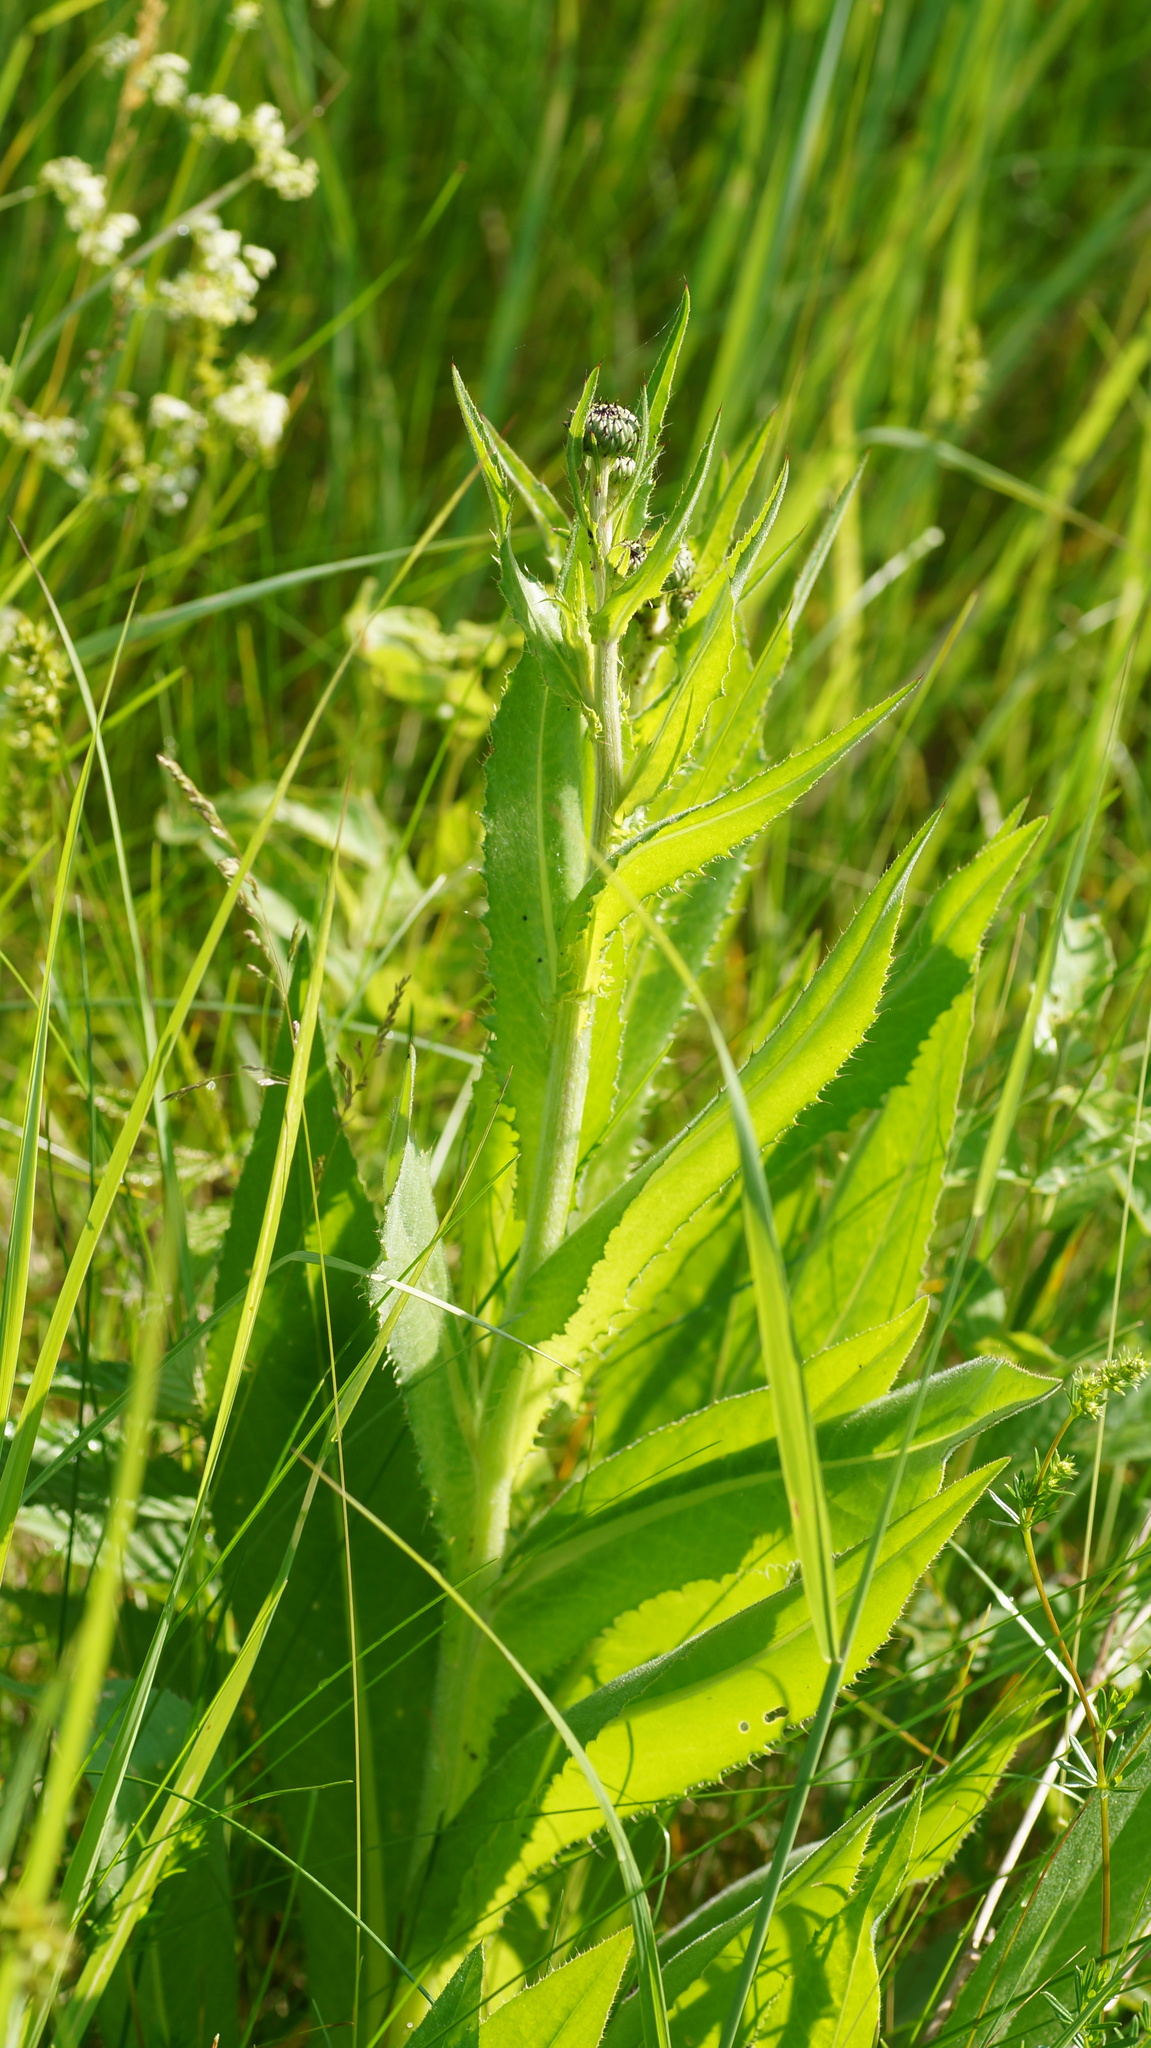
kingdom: Plantae
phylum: Tracheophyta
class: Magnoliopsida
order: Asterales
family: Asteraceae
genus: Cirsium
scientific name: Cirsium canum
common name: Queen anne's thistle
